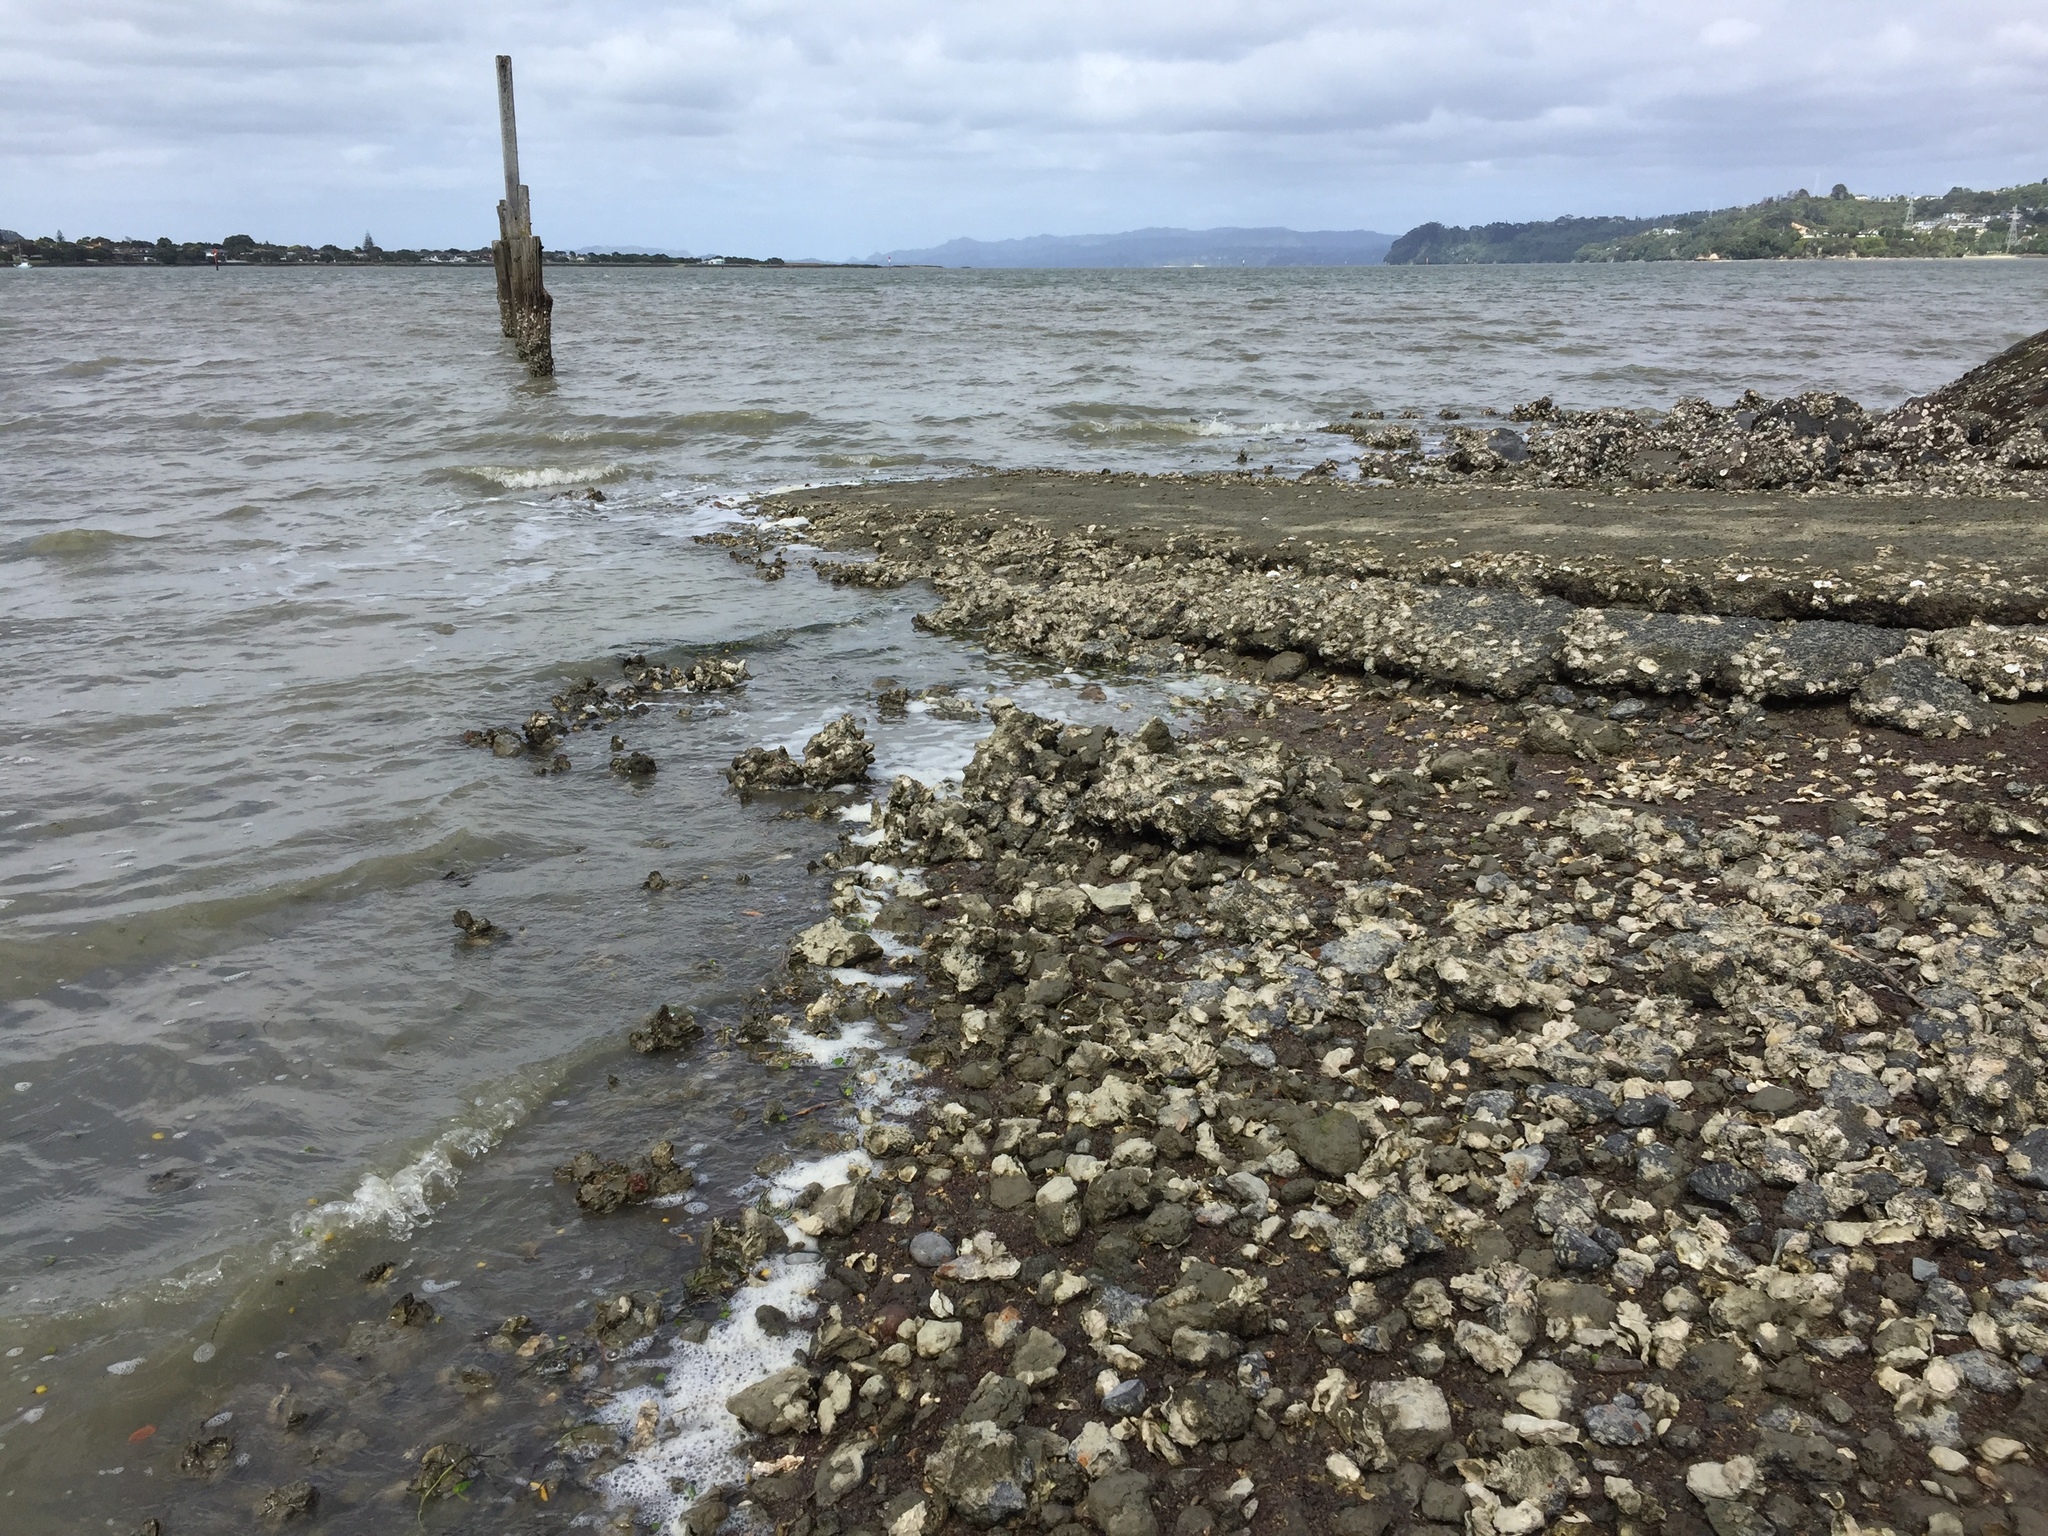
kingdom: Animalia
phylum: Mollusca
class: Bivalvia
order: Ostreida
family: Ostreidae
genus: Magallana
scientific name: Magallana gigas
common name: Pacific oyster
